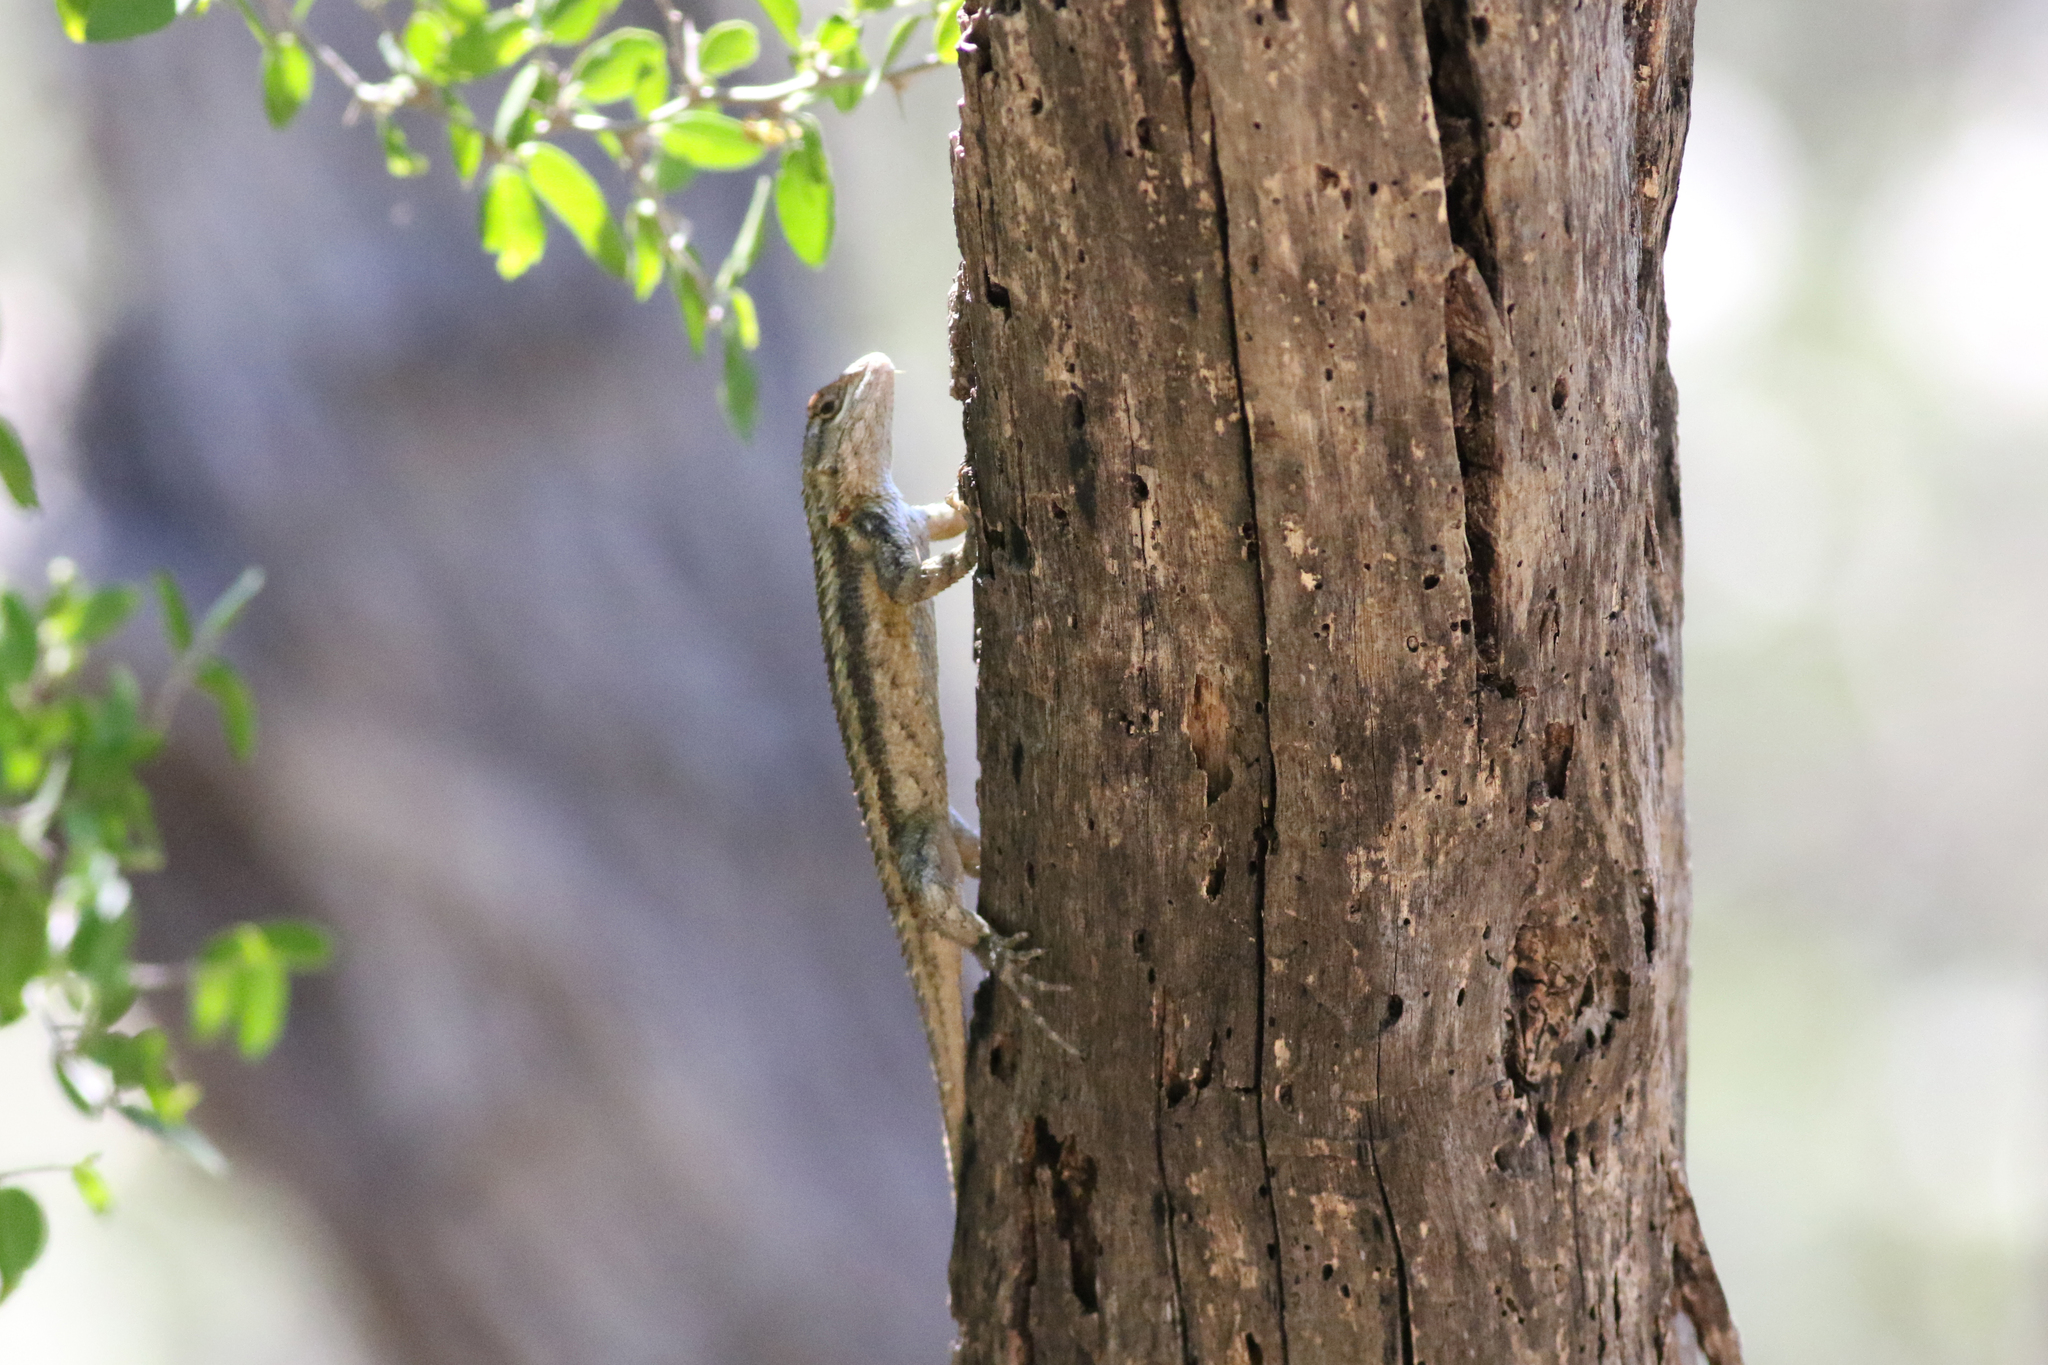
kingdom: Animalia
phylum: Chordata
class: Squamata
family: Phrynosomatidae
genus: Sceloporus
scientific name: Sceloporus olivaceus
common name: Texas spiny lizard
